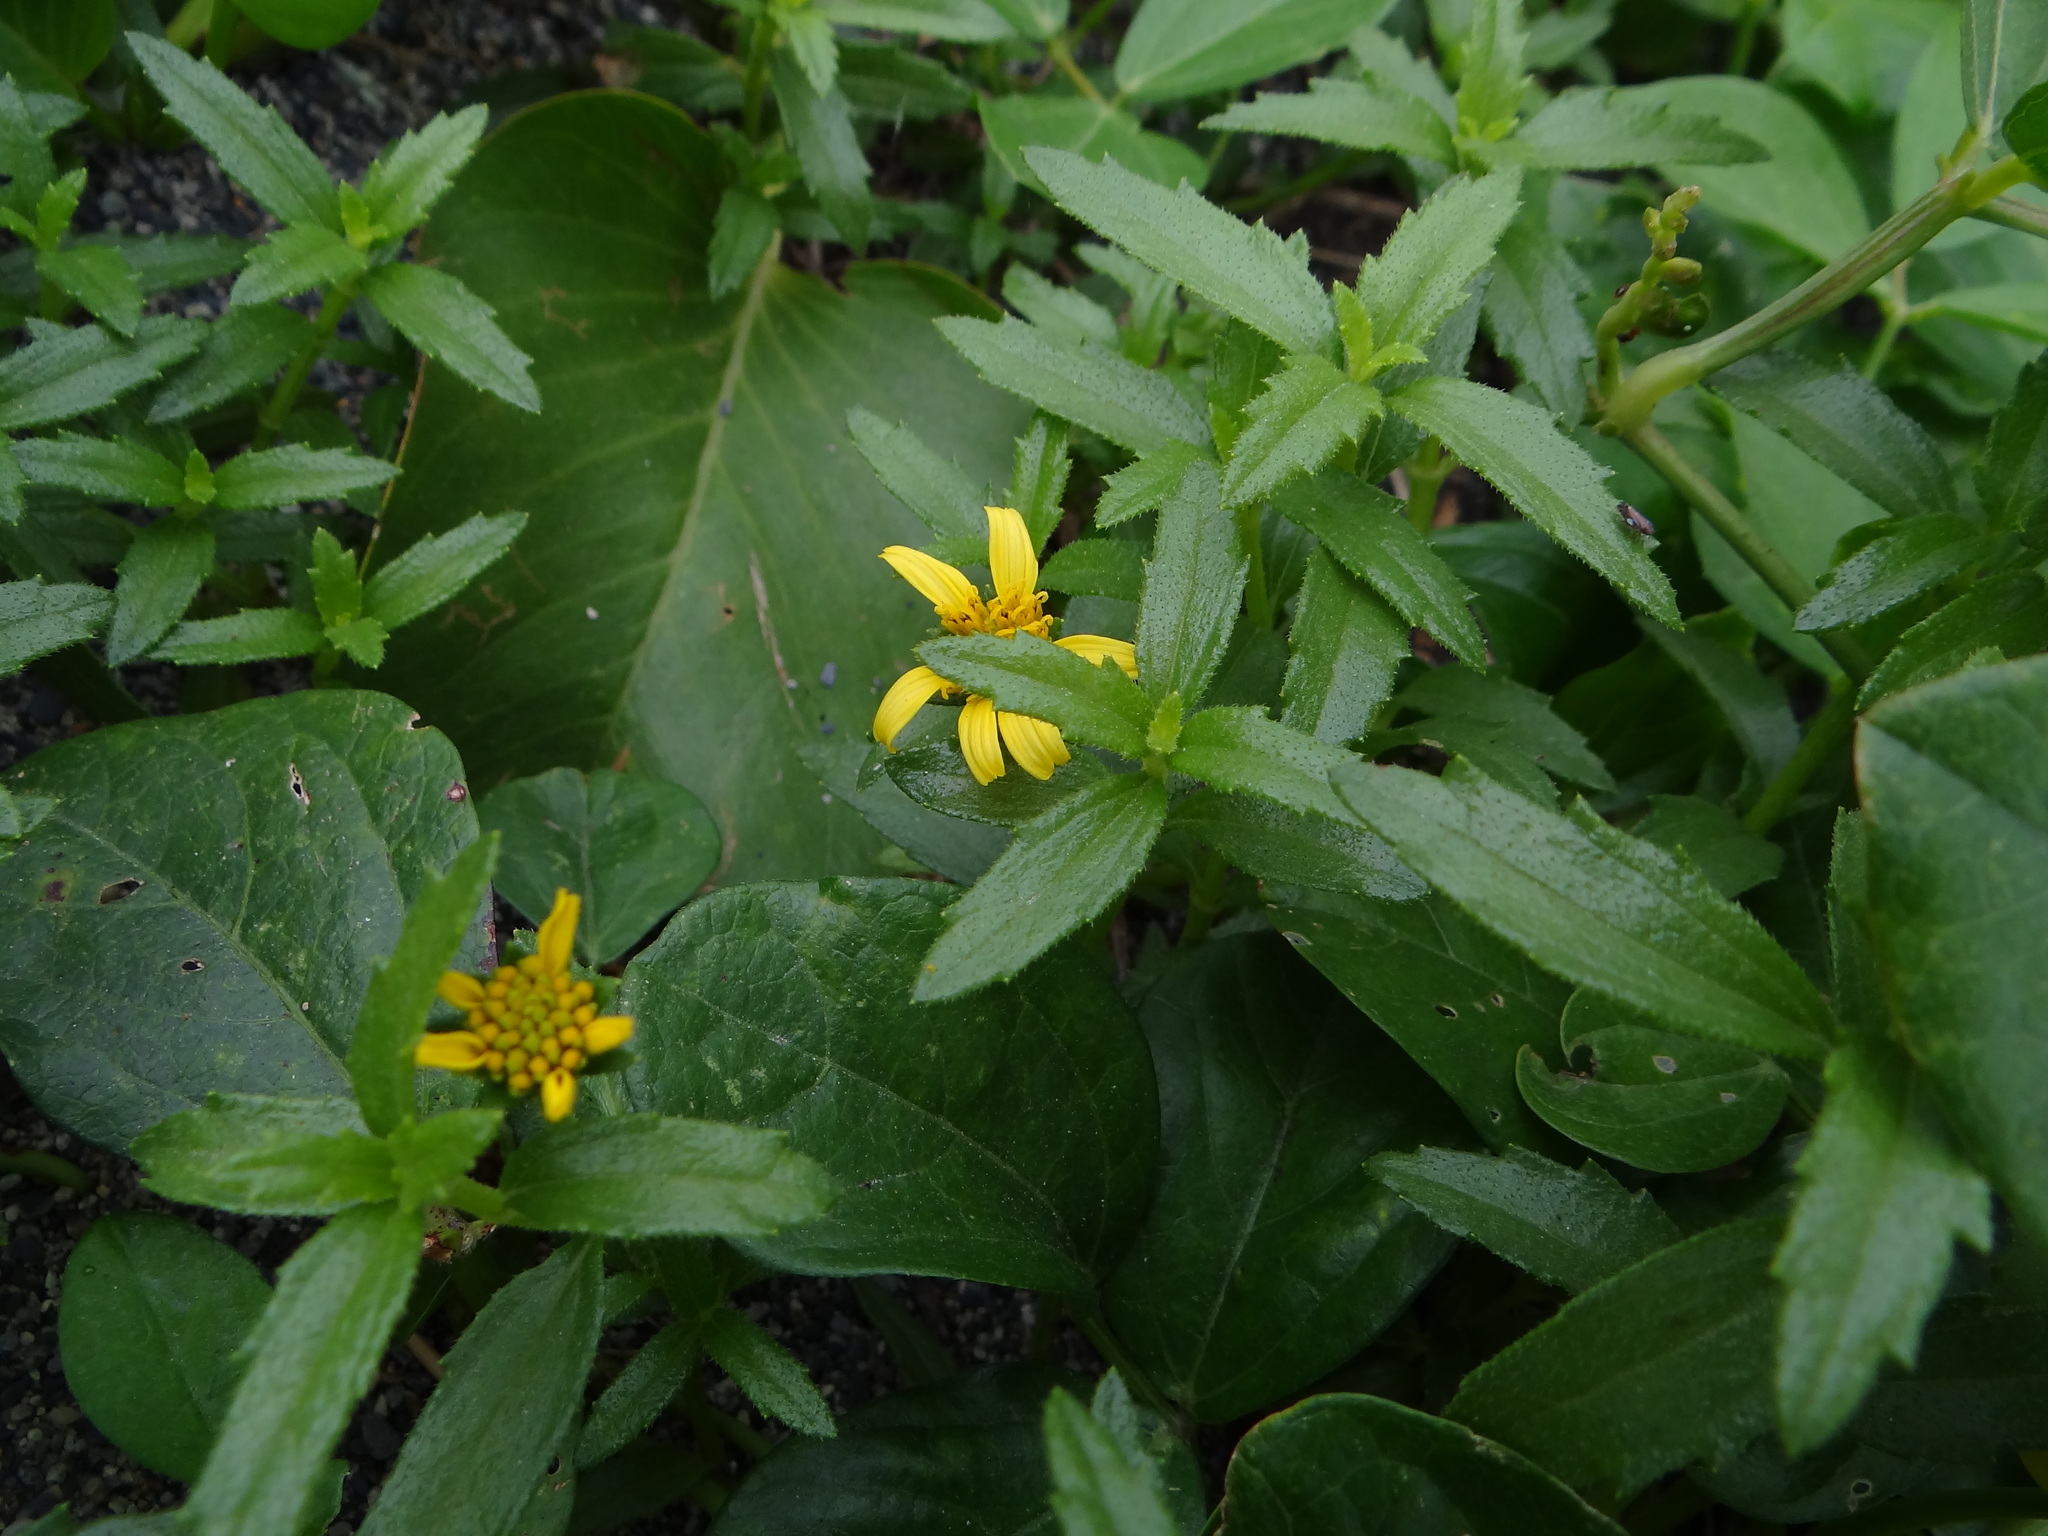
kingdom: Plantae
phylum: Tracheophyta
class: Magnoliopsida
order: Asterales
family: Asteraceae
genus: Melanthera
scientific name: Melanthera prostrata
